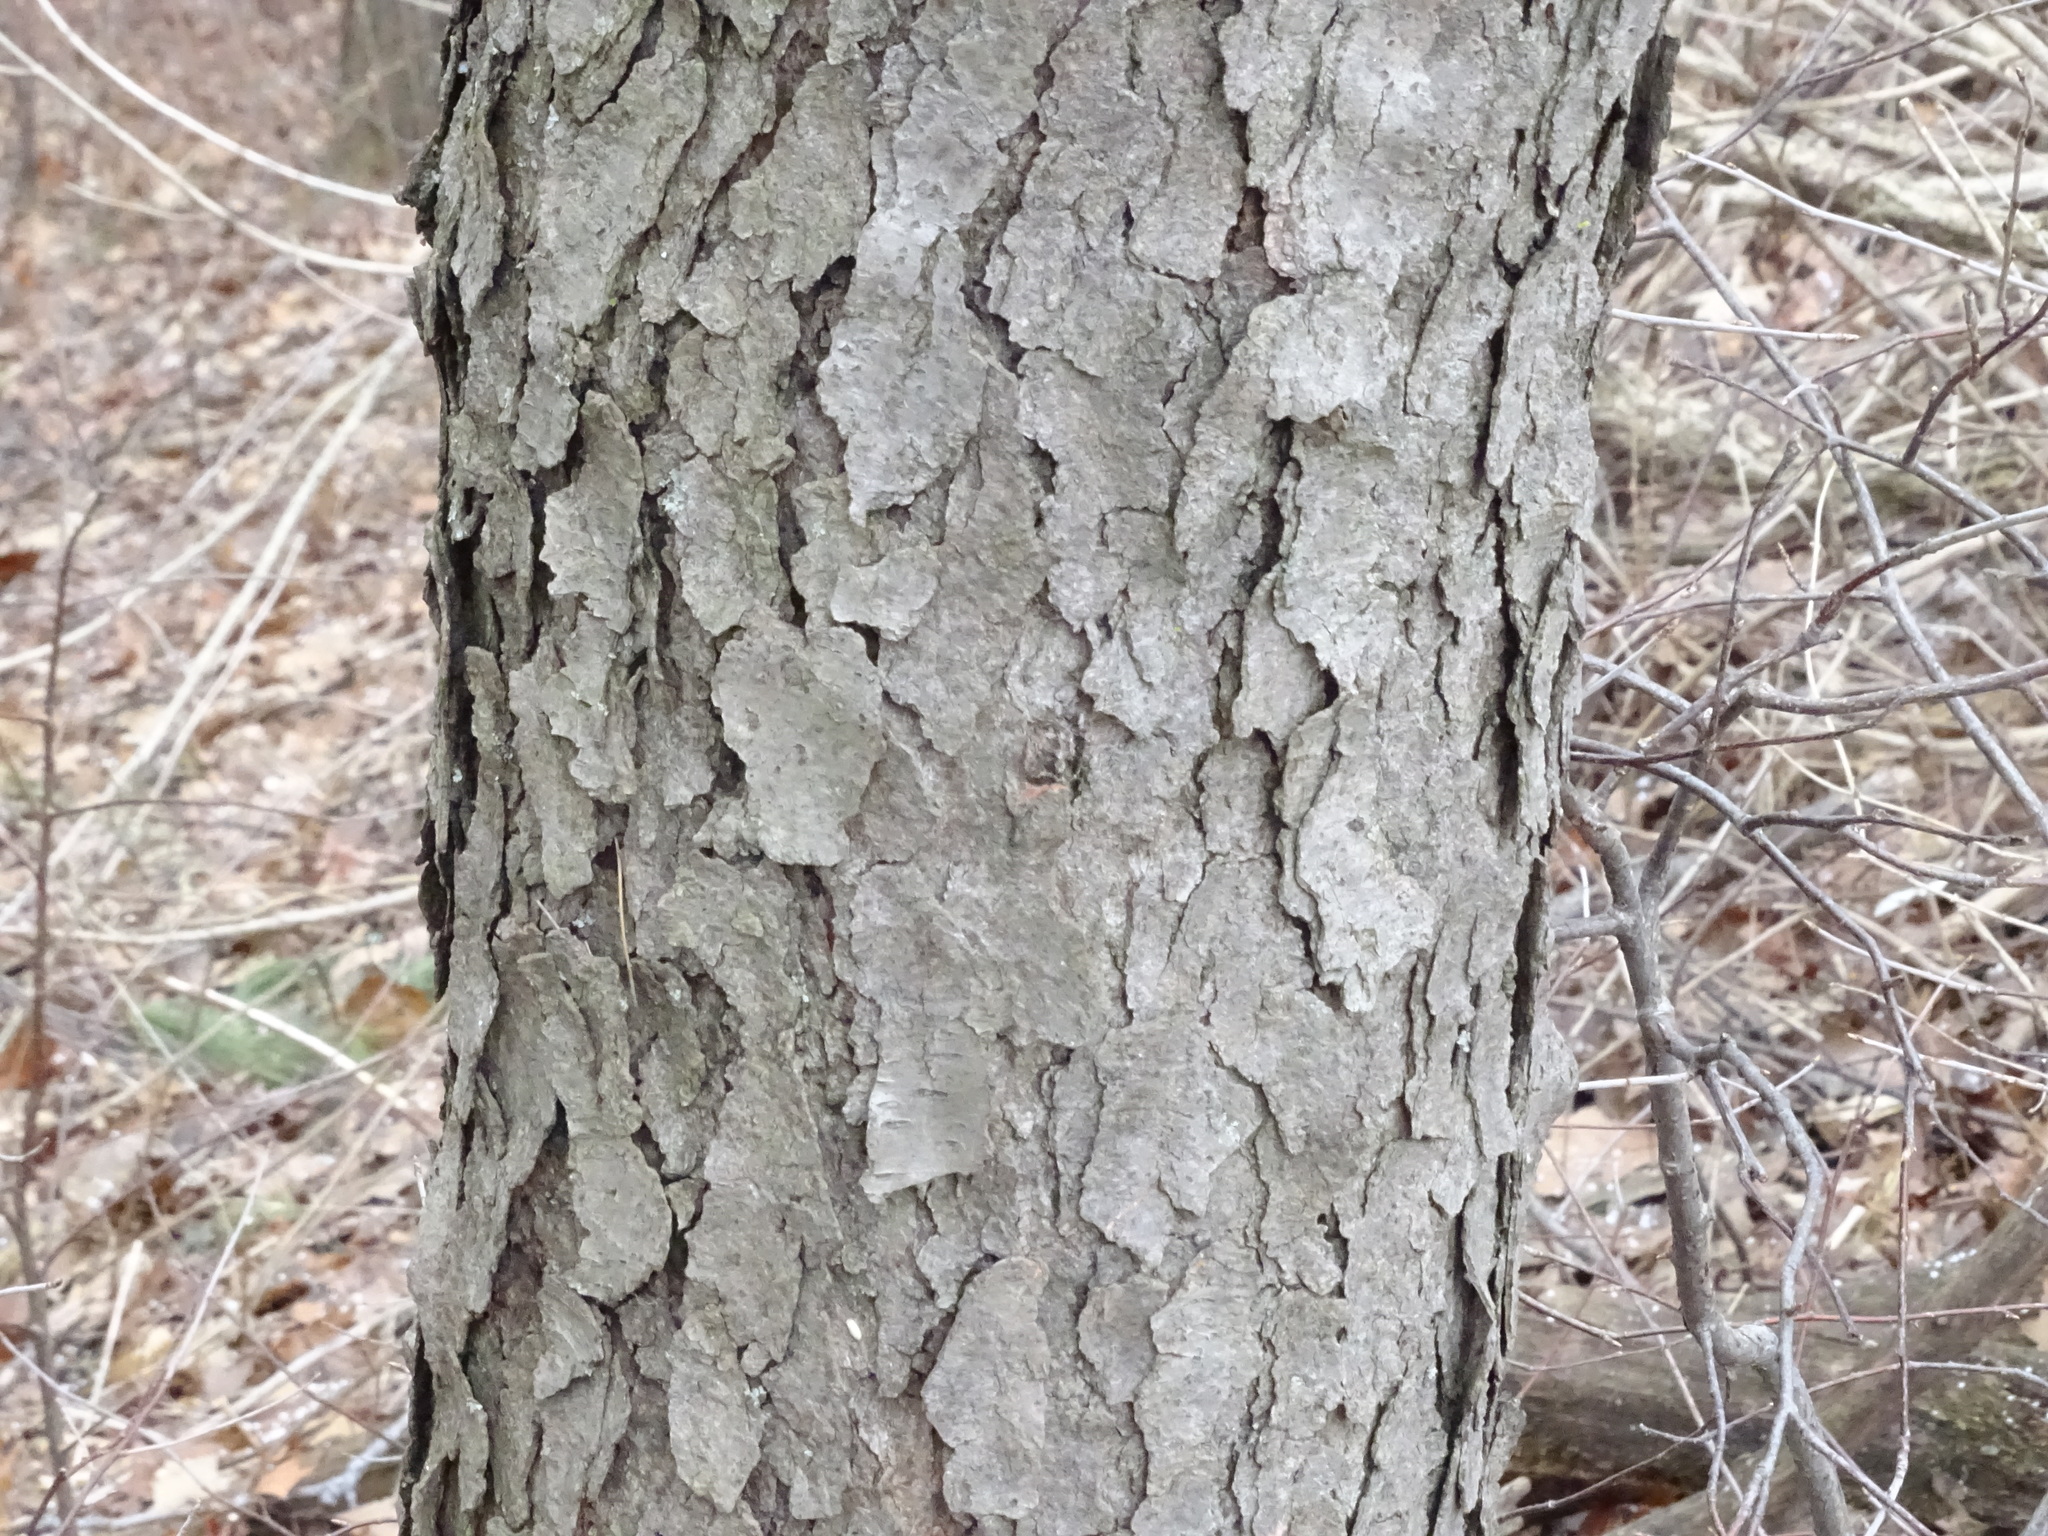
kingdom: Plantae
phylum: Tracheophyta
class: Magnoliopsida
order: Rosales
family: Rosaceae
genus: Prunus
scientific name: Prunus serotina
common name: Black cherry
